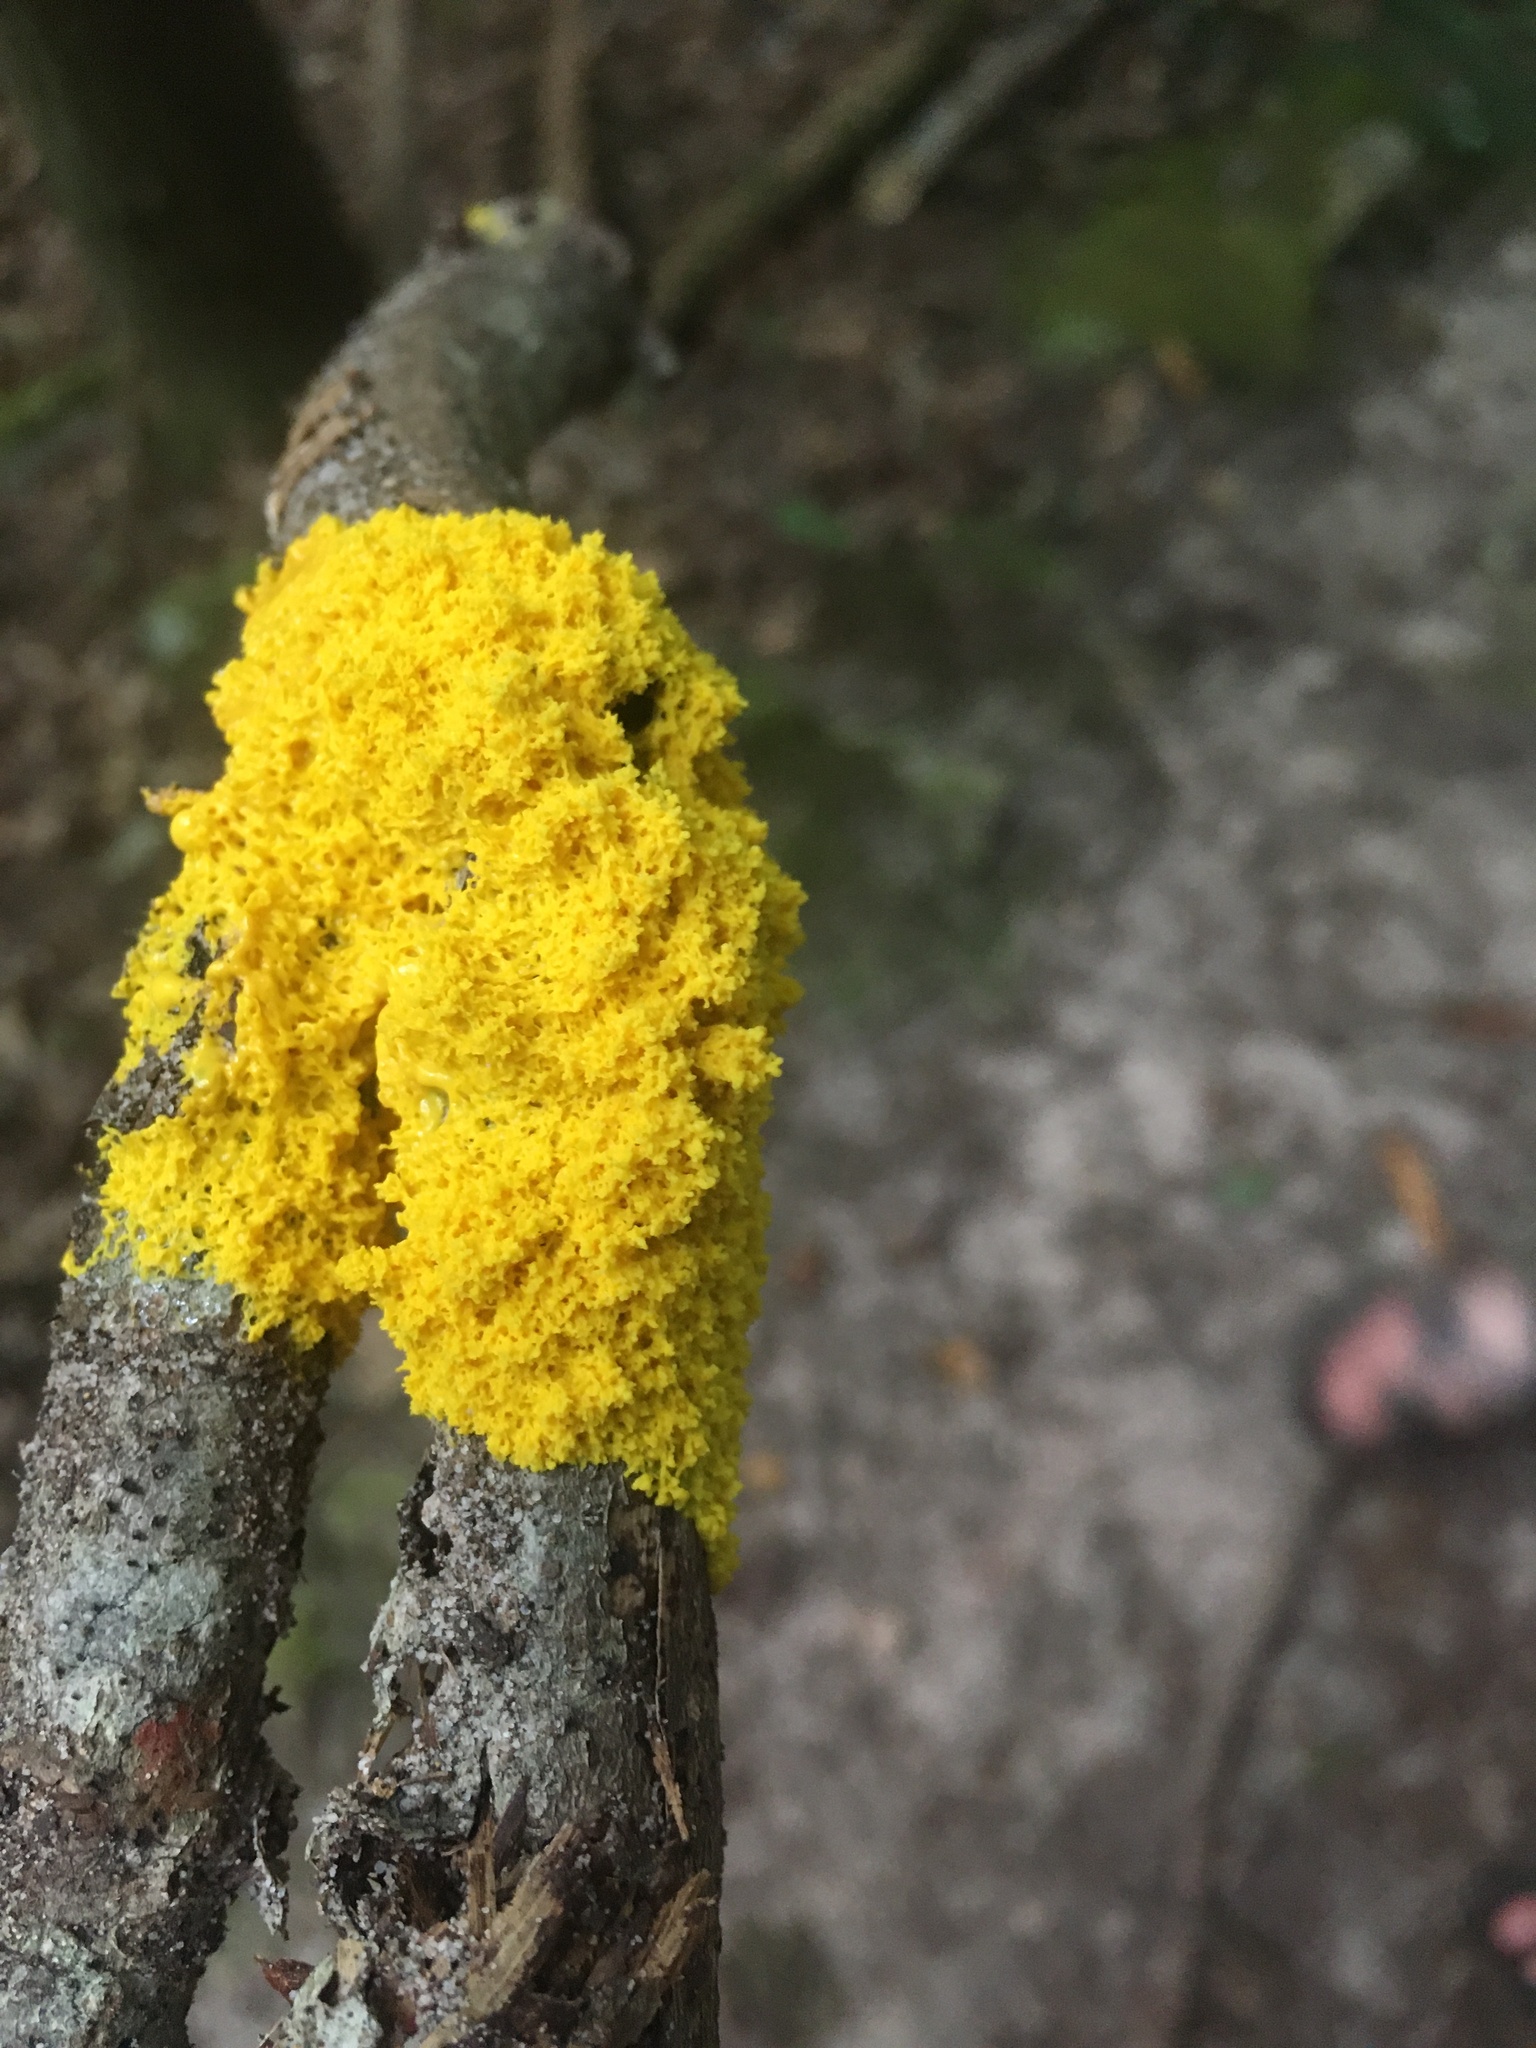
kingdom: Protozoa
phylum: Mycetozoa
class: Myxomycetes
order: Physarales
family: Physaraceae
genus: Fuligo
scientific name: Fuligo septica
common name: Dog vomit slime mold
